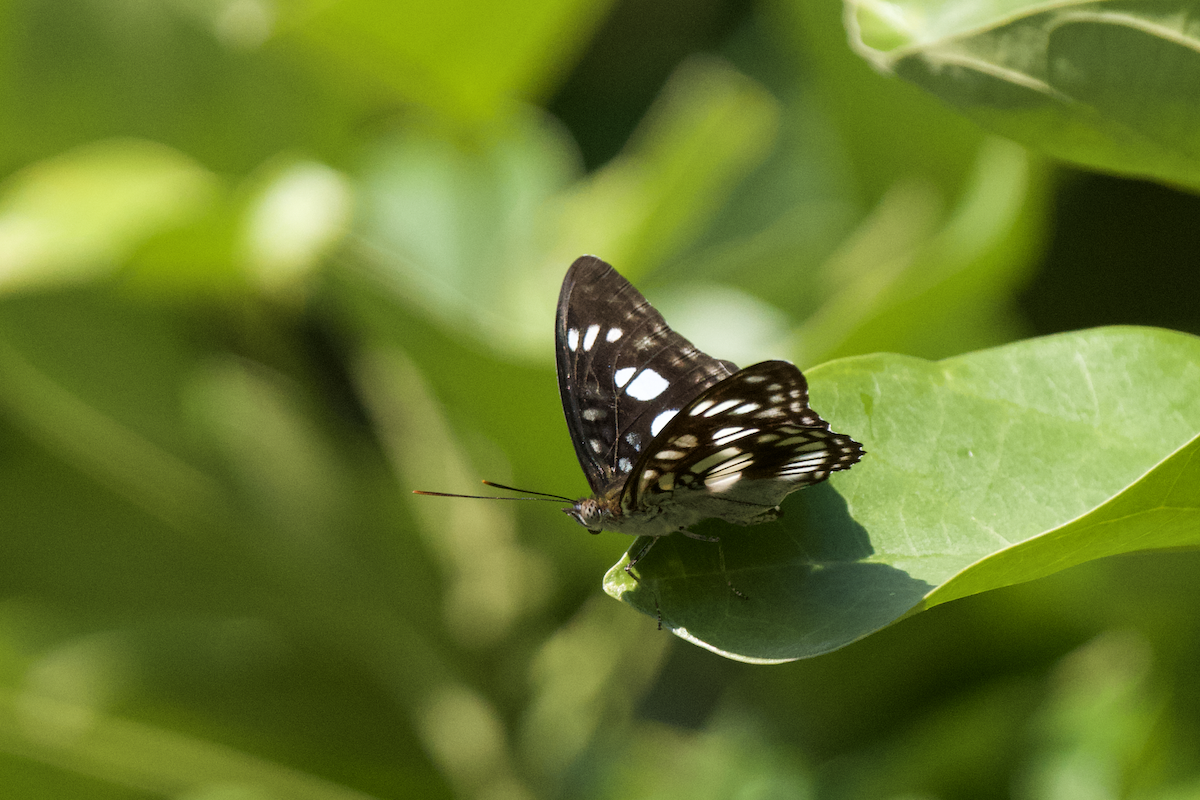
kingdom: Animalia
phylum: Arthropoda
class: Insecta
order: Lepidoptera
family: Nymphalidae
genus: Parathyma
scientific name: Parathyma ranga
